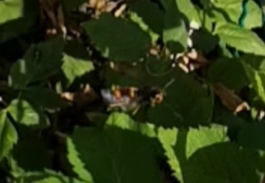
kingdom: Animalia
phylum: Arthropoda
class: Insecta
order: Hymenoptera
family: Vespidae
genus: Vespa
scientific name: Vespa velutina
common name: Asian hornet
